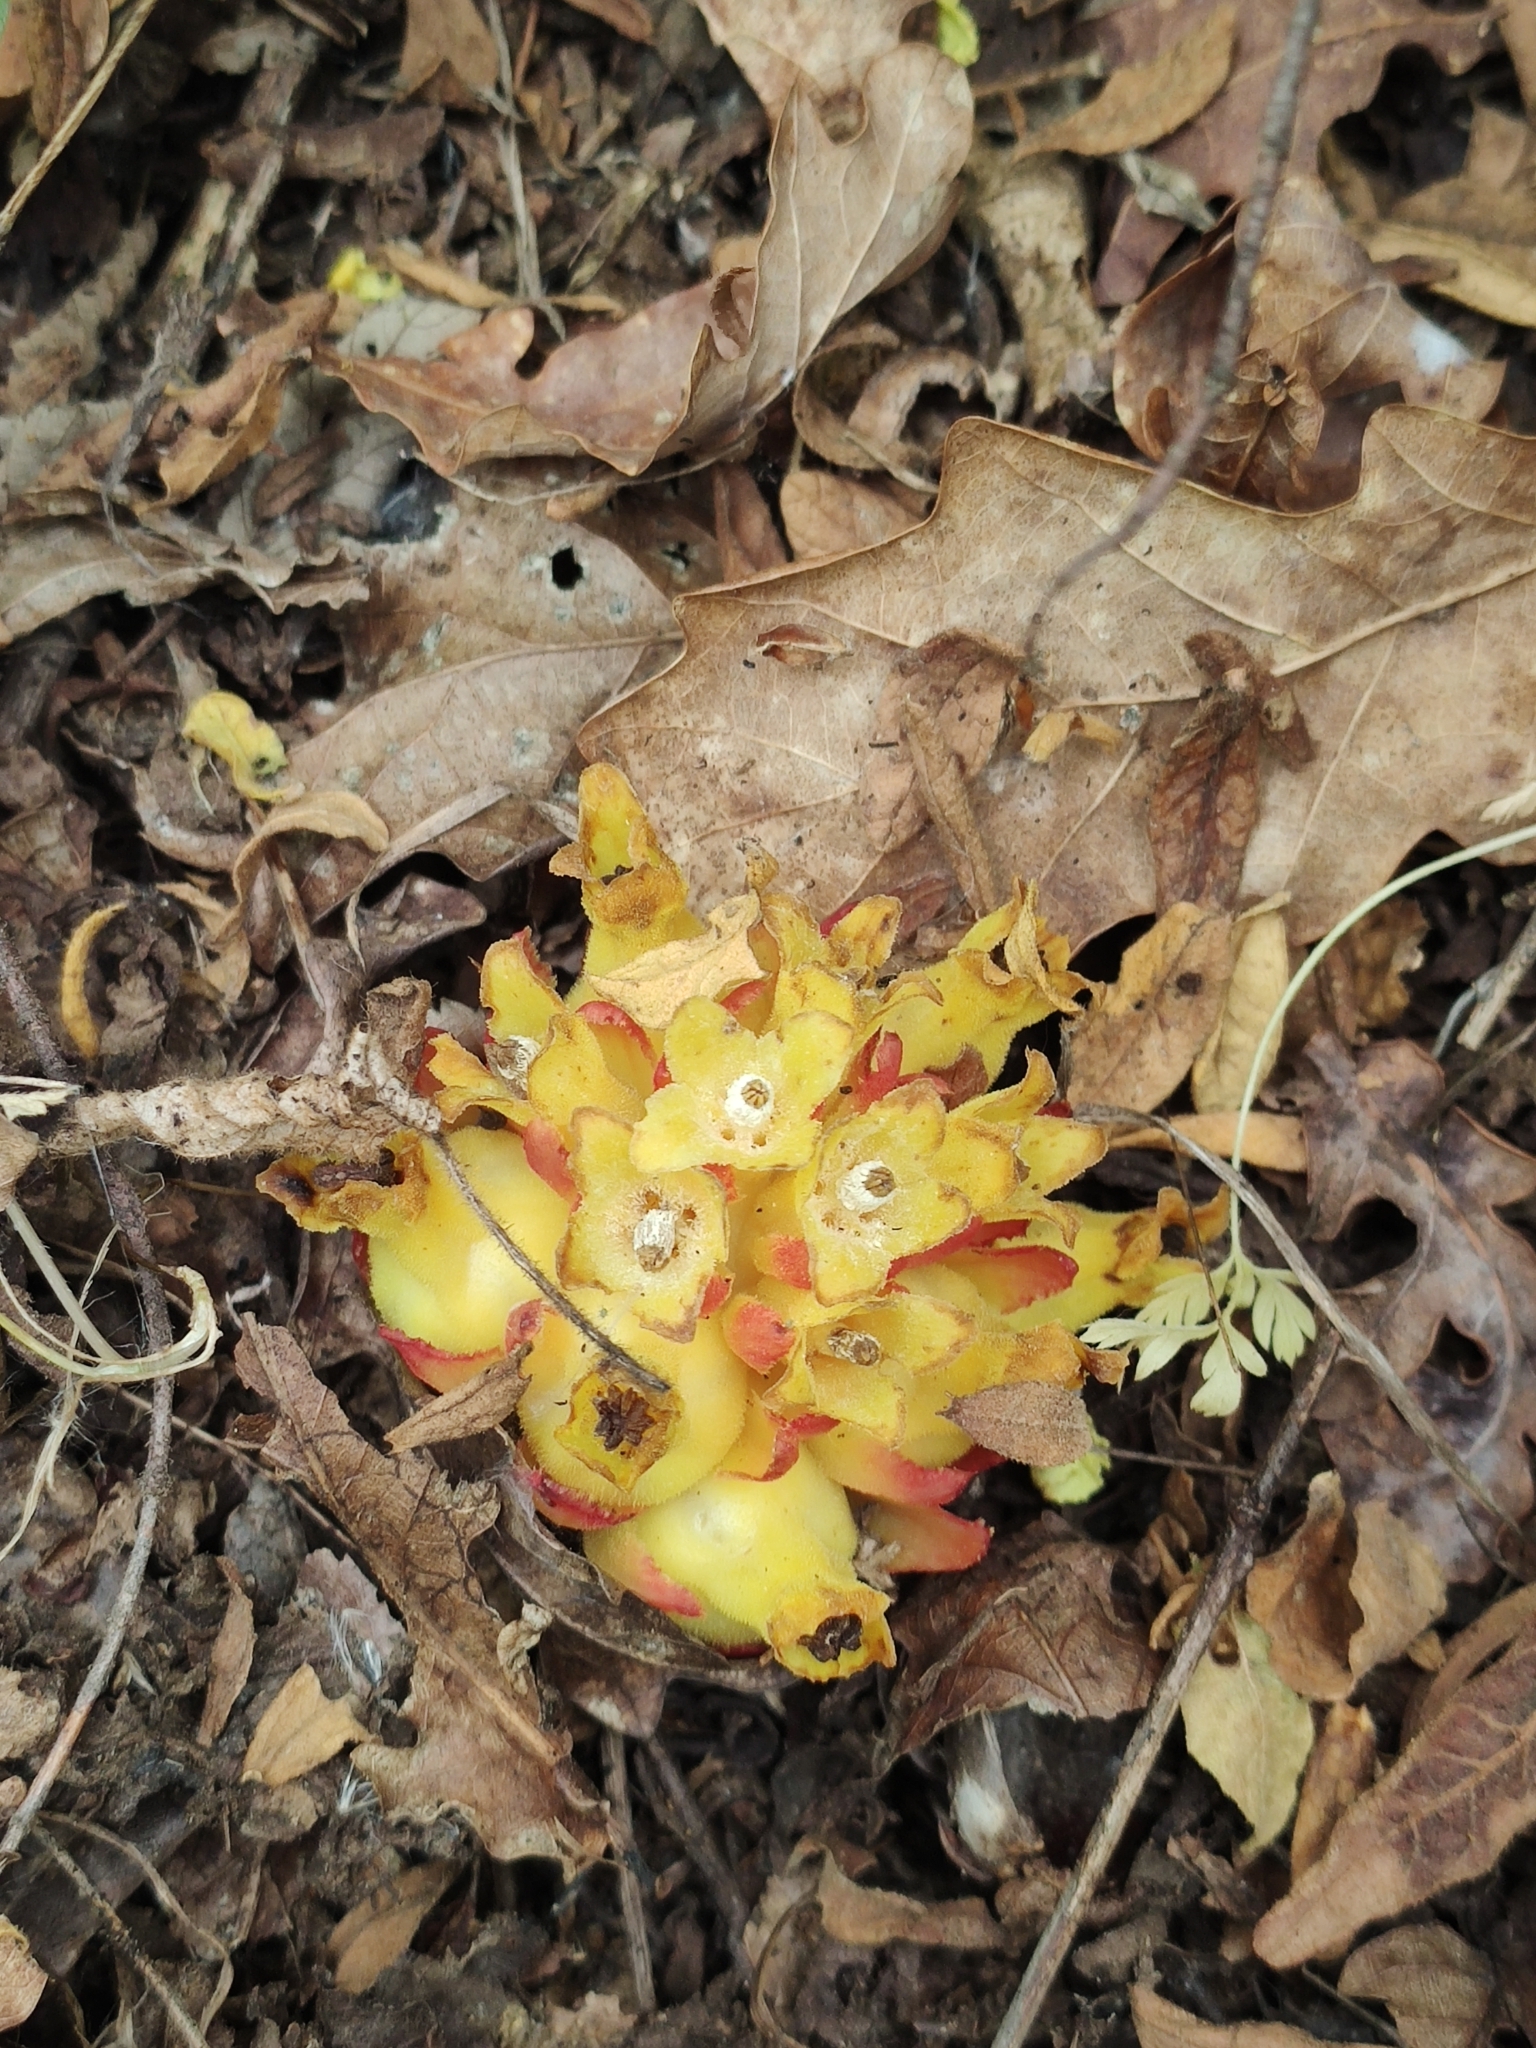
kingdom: Plantae
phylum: Tracheophyta
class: Magnoliopsida
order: Malvales
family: Cytinaceae
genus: Cytinus
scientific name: Cytinus hypocistis
